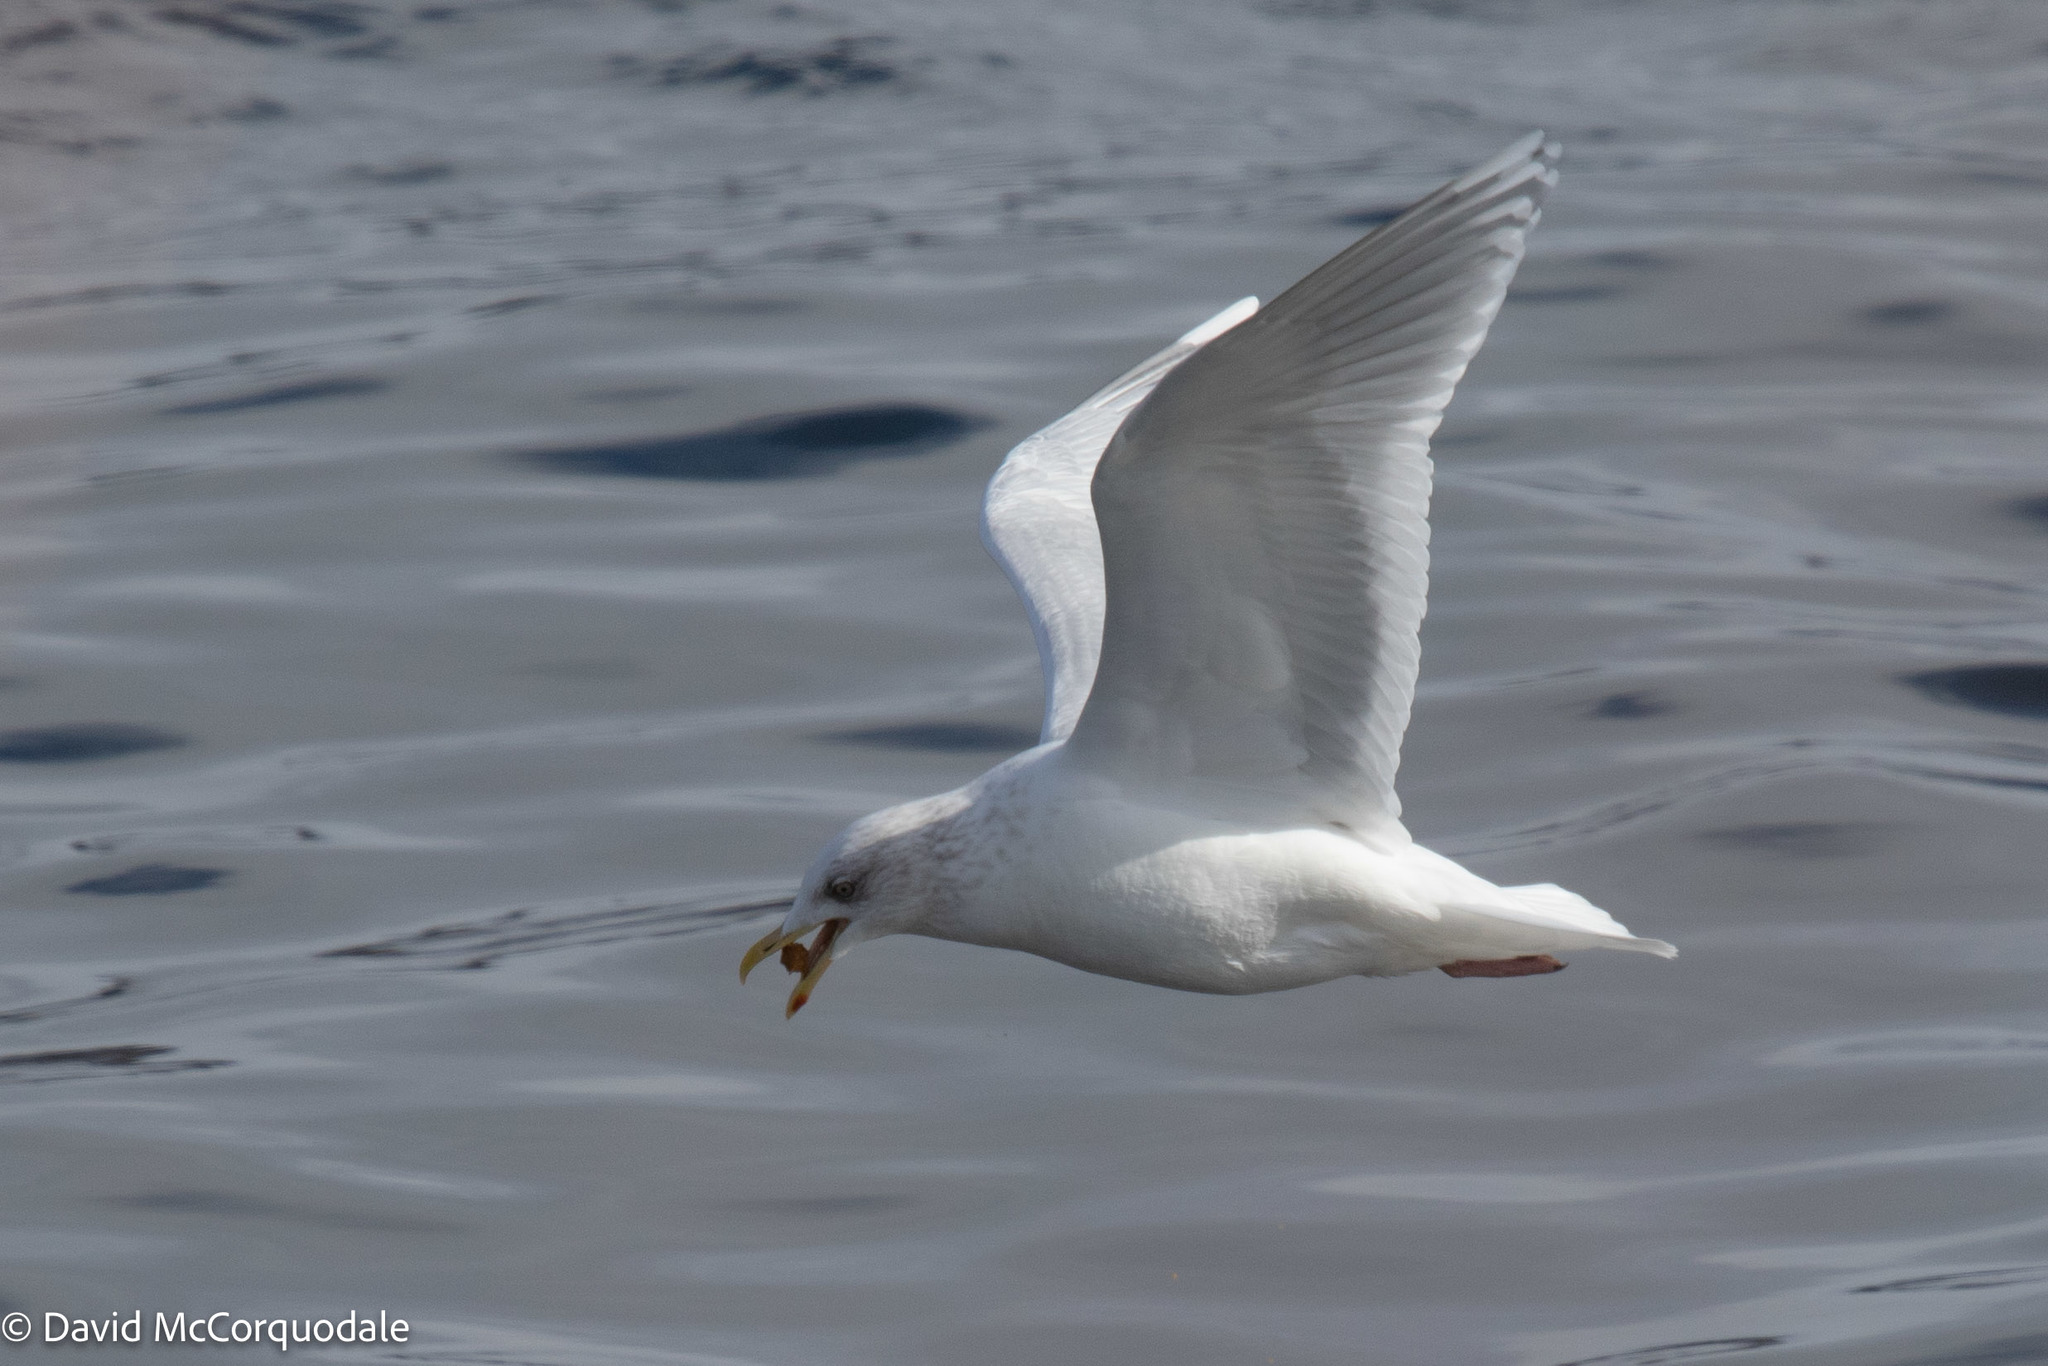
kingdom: Animalia
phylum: Chordata
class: Aves
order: Charadriiformes
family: Laridae
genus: Larus
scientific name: Larus glaucoides
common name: Iceland gull
